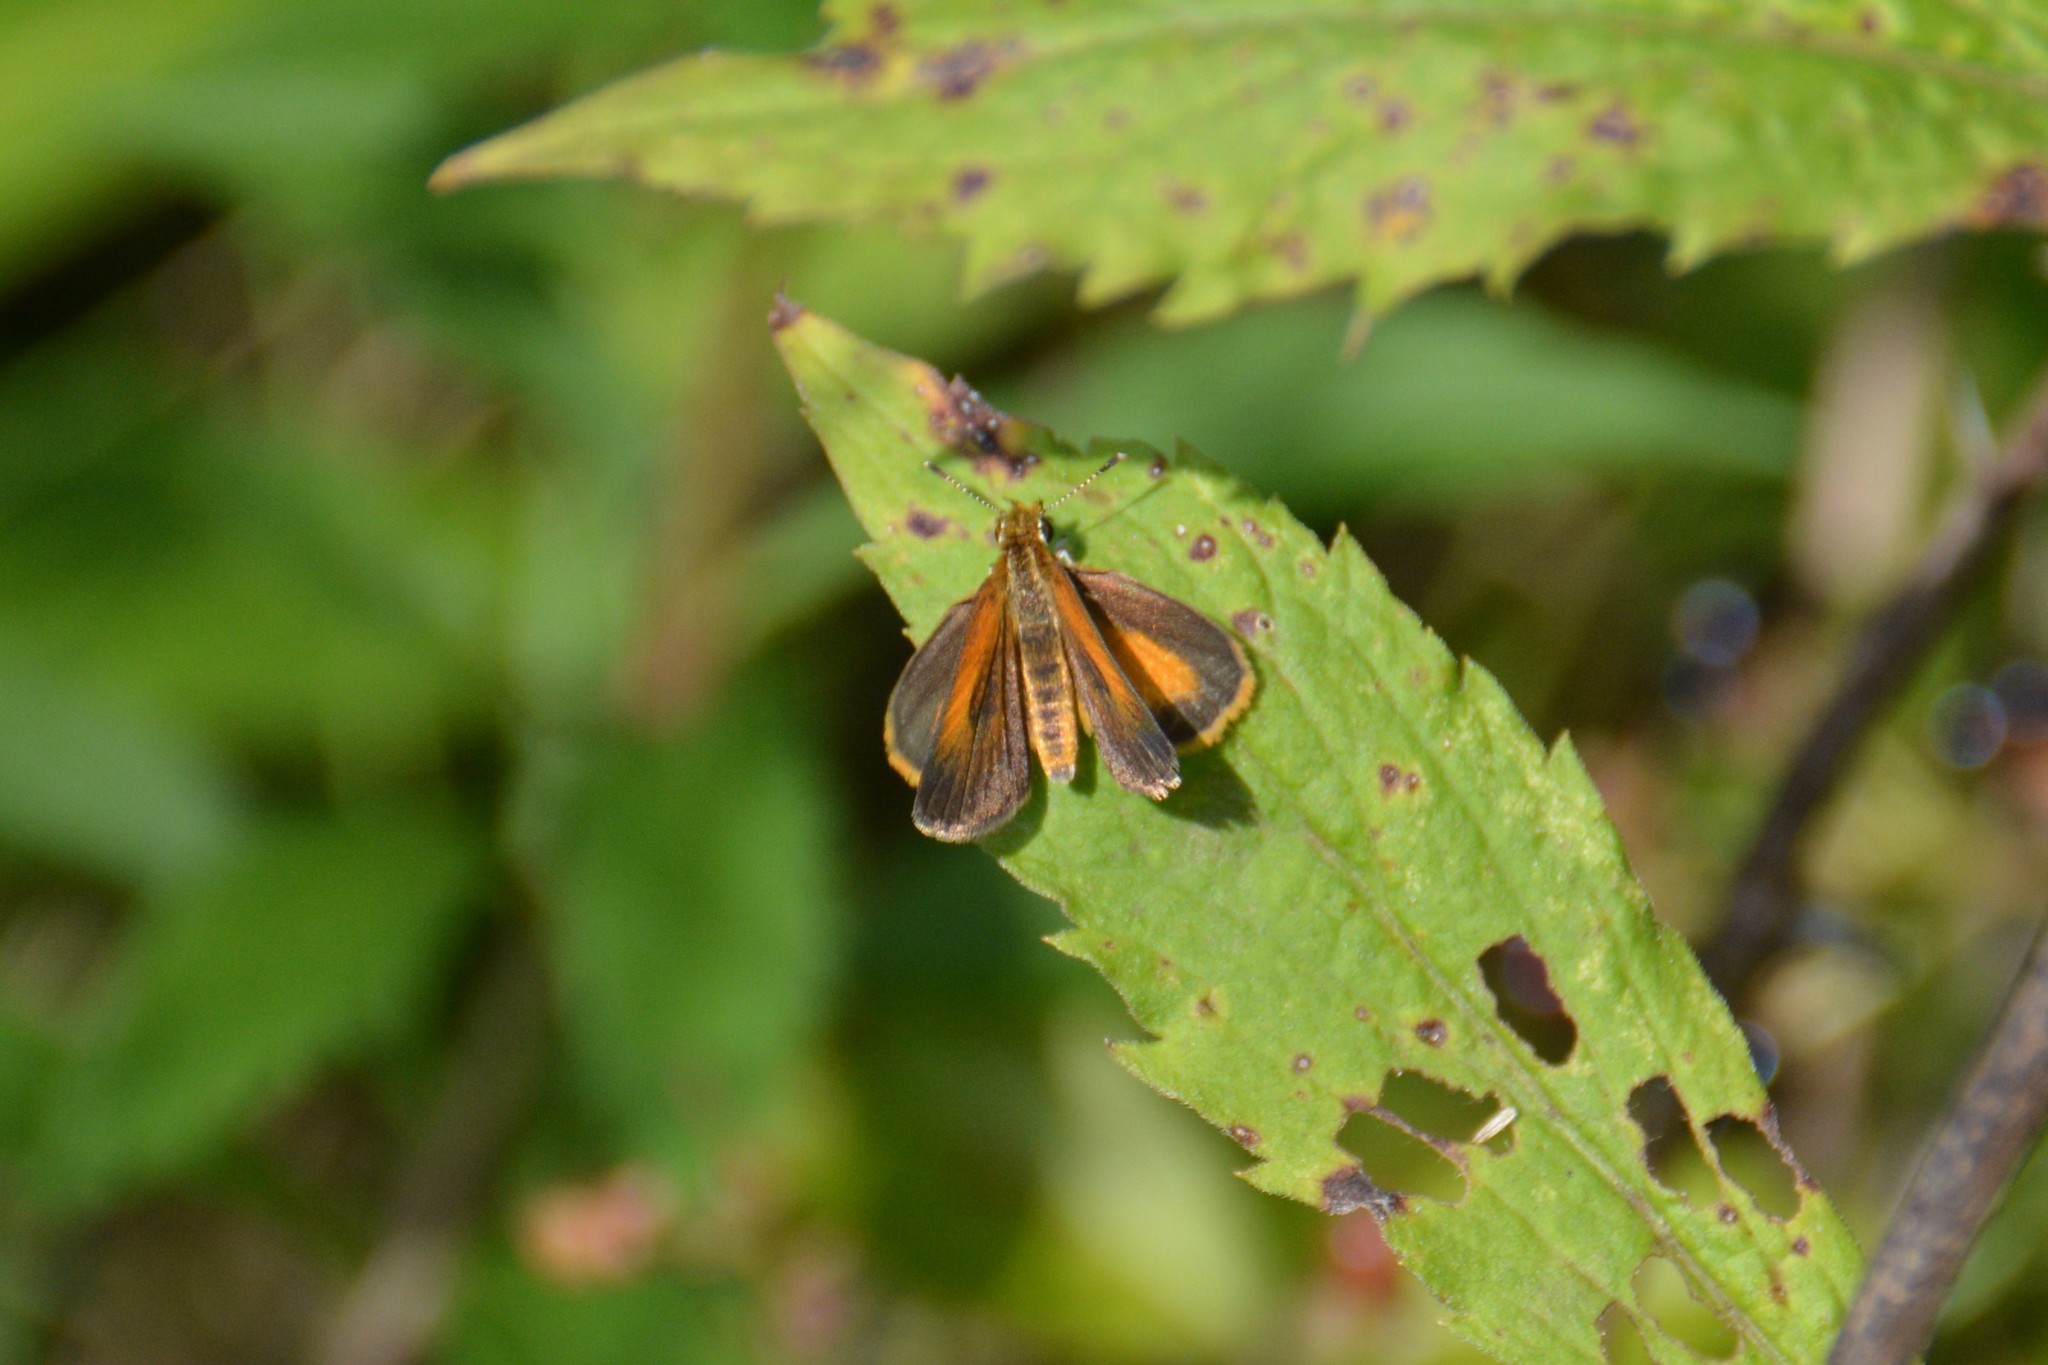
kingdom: Animalia
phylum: Arthropoda
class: Insecta
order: Lepidoptera
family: Hesperiidae
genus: Ancyloxypha
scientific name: Ancyloxypha numitor
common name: Least skipper
